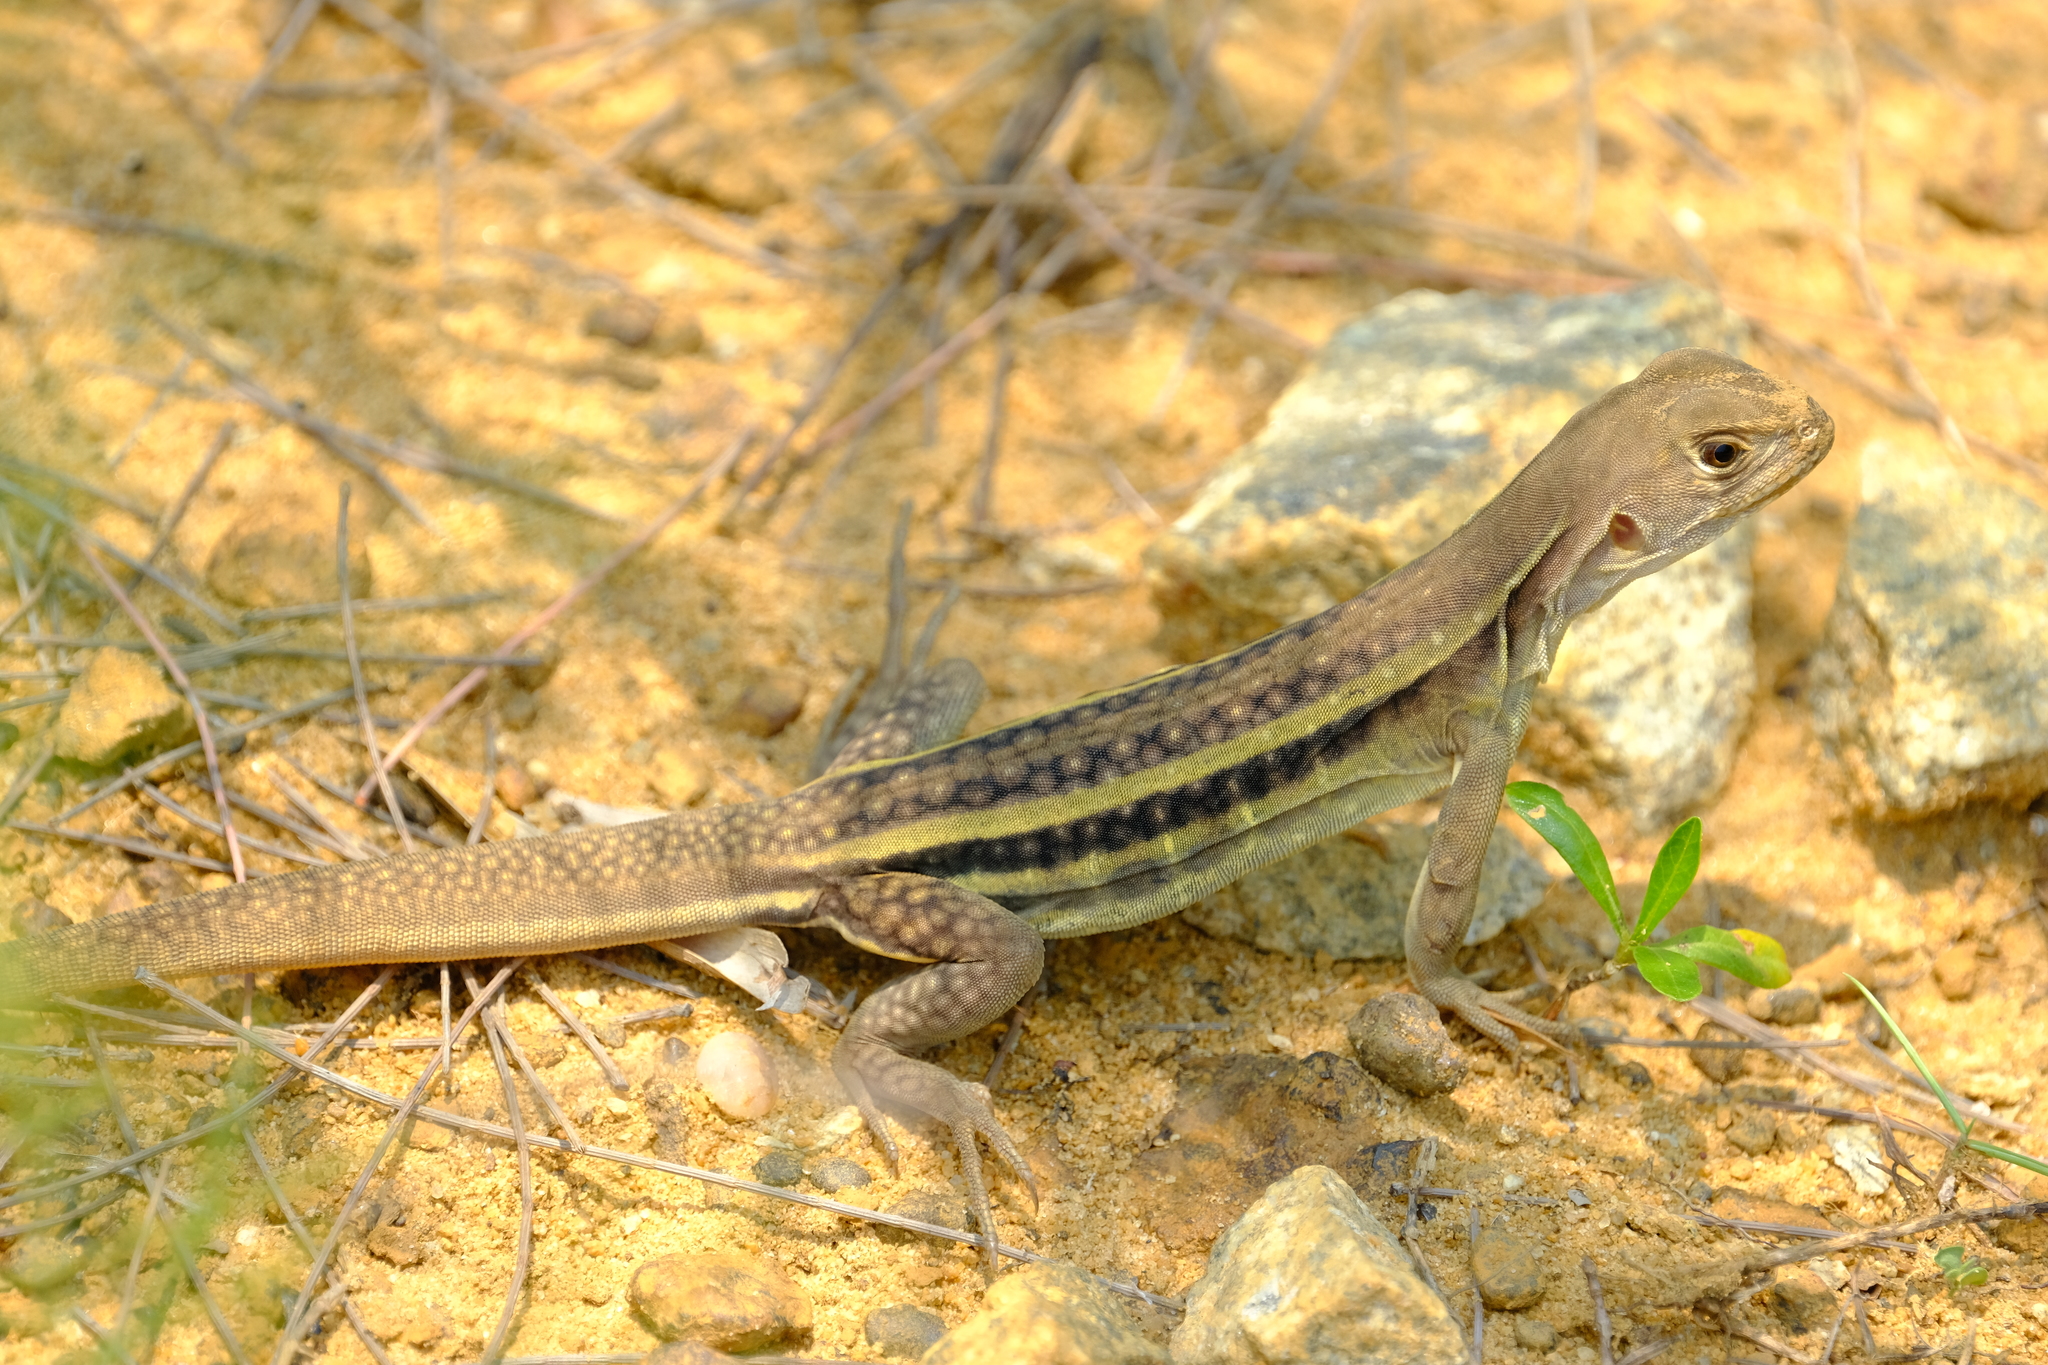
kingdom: Animalia
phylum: Chordata
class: Squamata
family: Agamidae
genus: Leiolepis
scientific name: Leiolepis guentherpetersi
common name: Peters’ butterfly lizard
